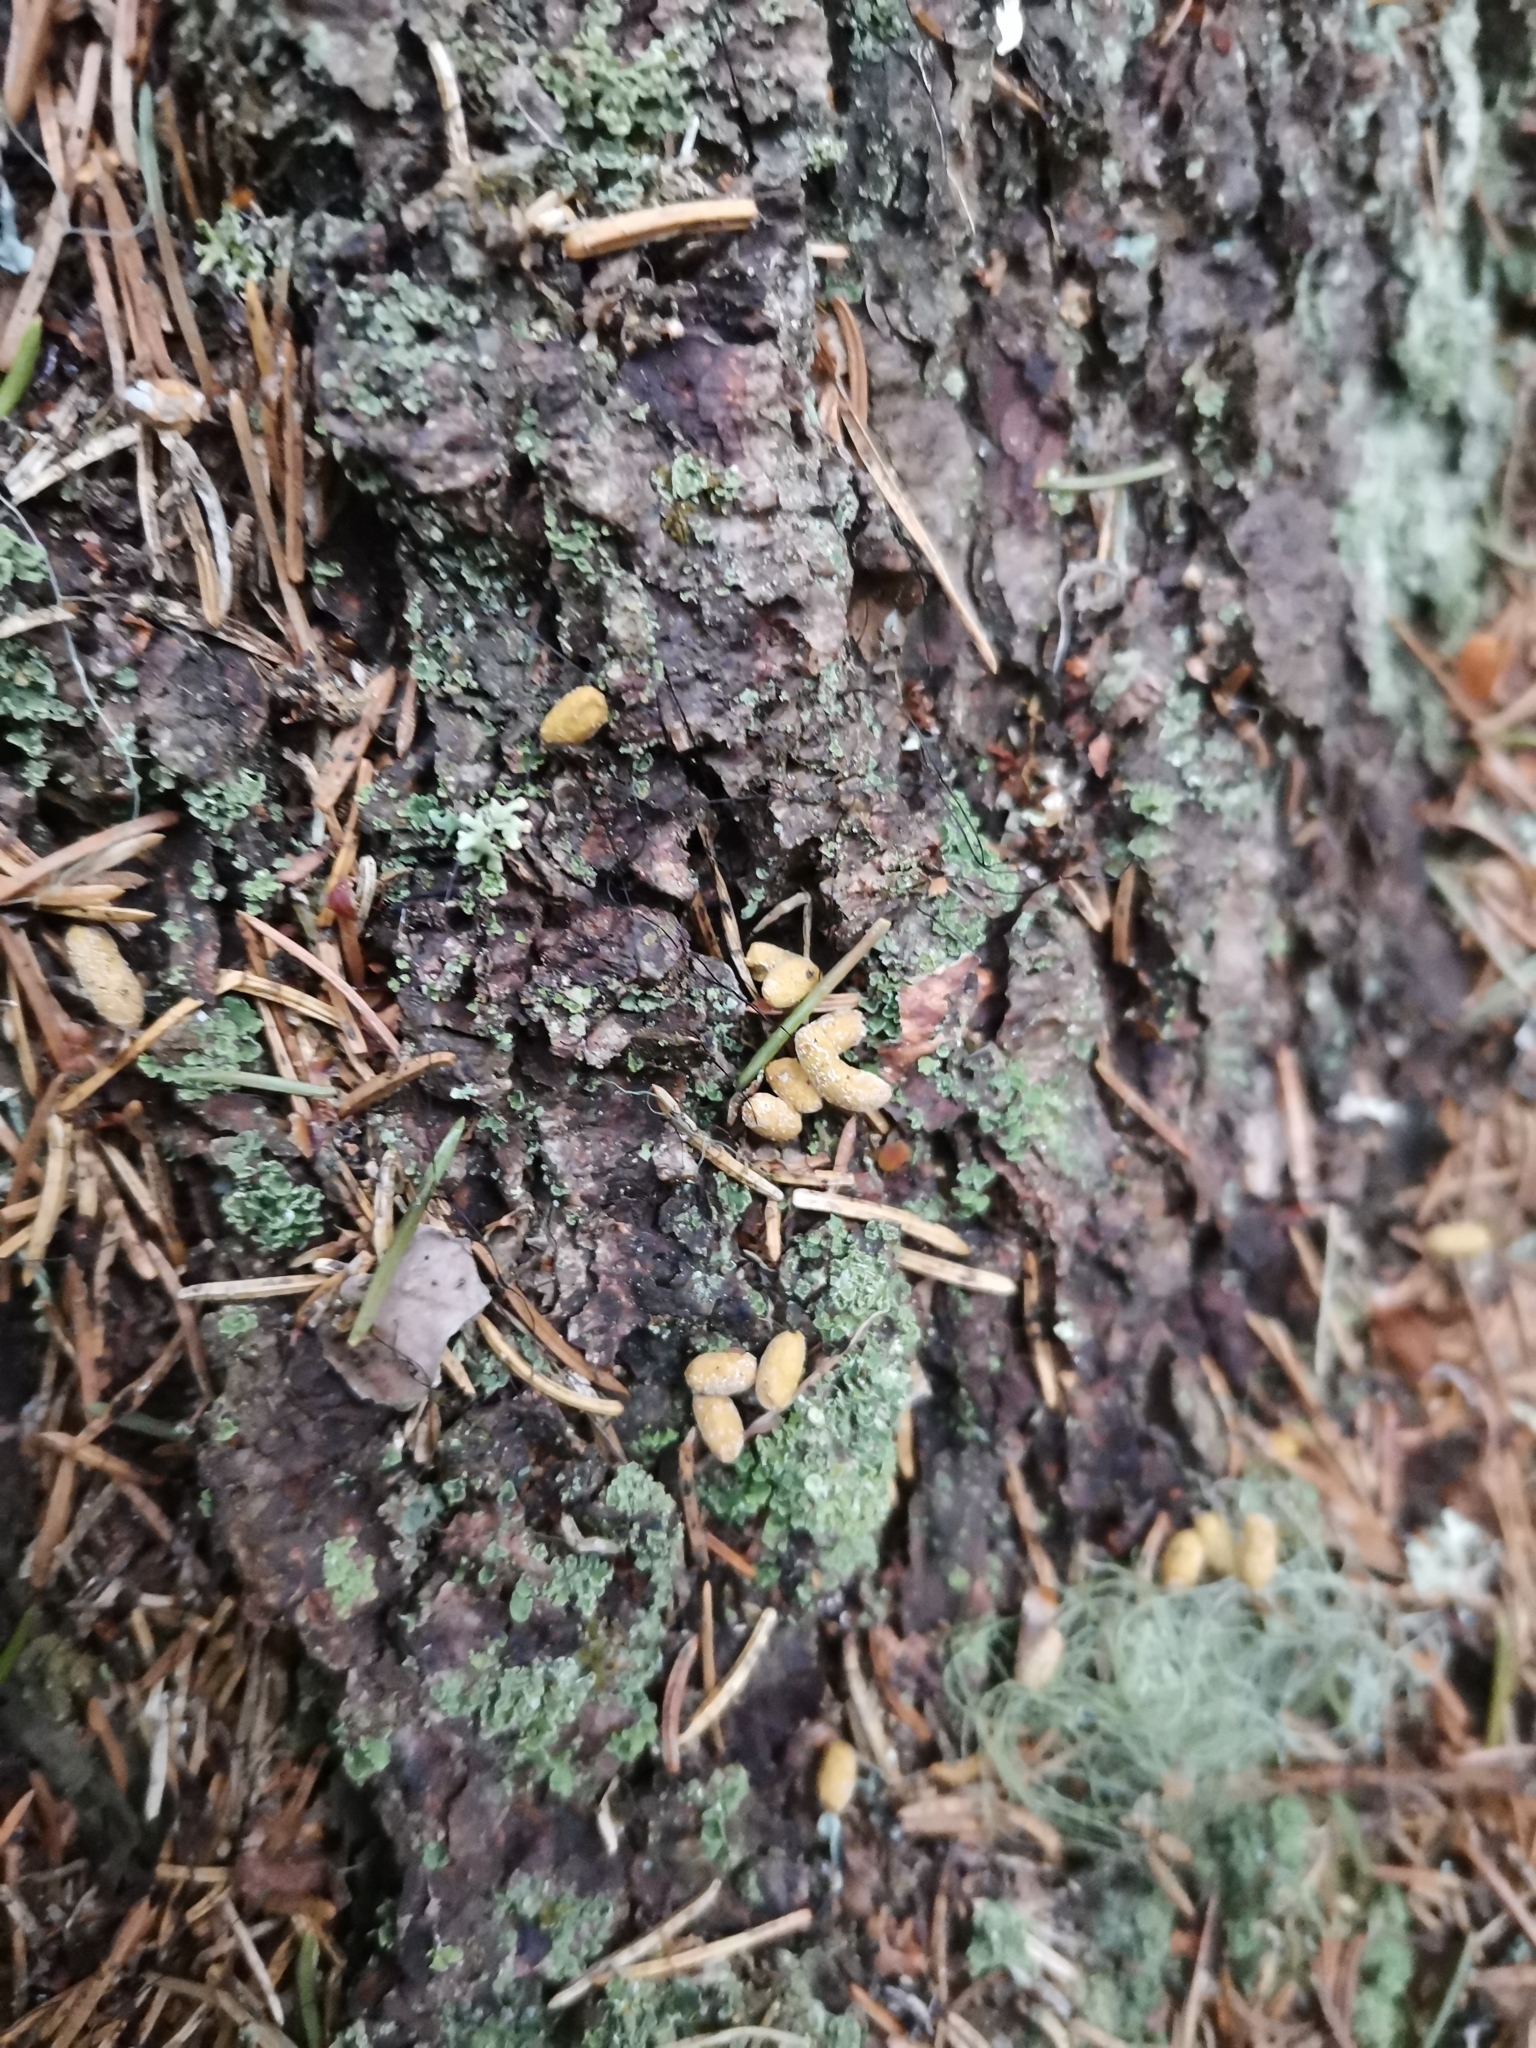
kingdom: Animalia
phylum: Chordata
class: Mammalia
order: Rodentia
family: Sciuridae
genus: Pteromys
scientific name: Pteromys volans
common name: Siberian flying squirrel
